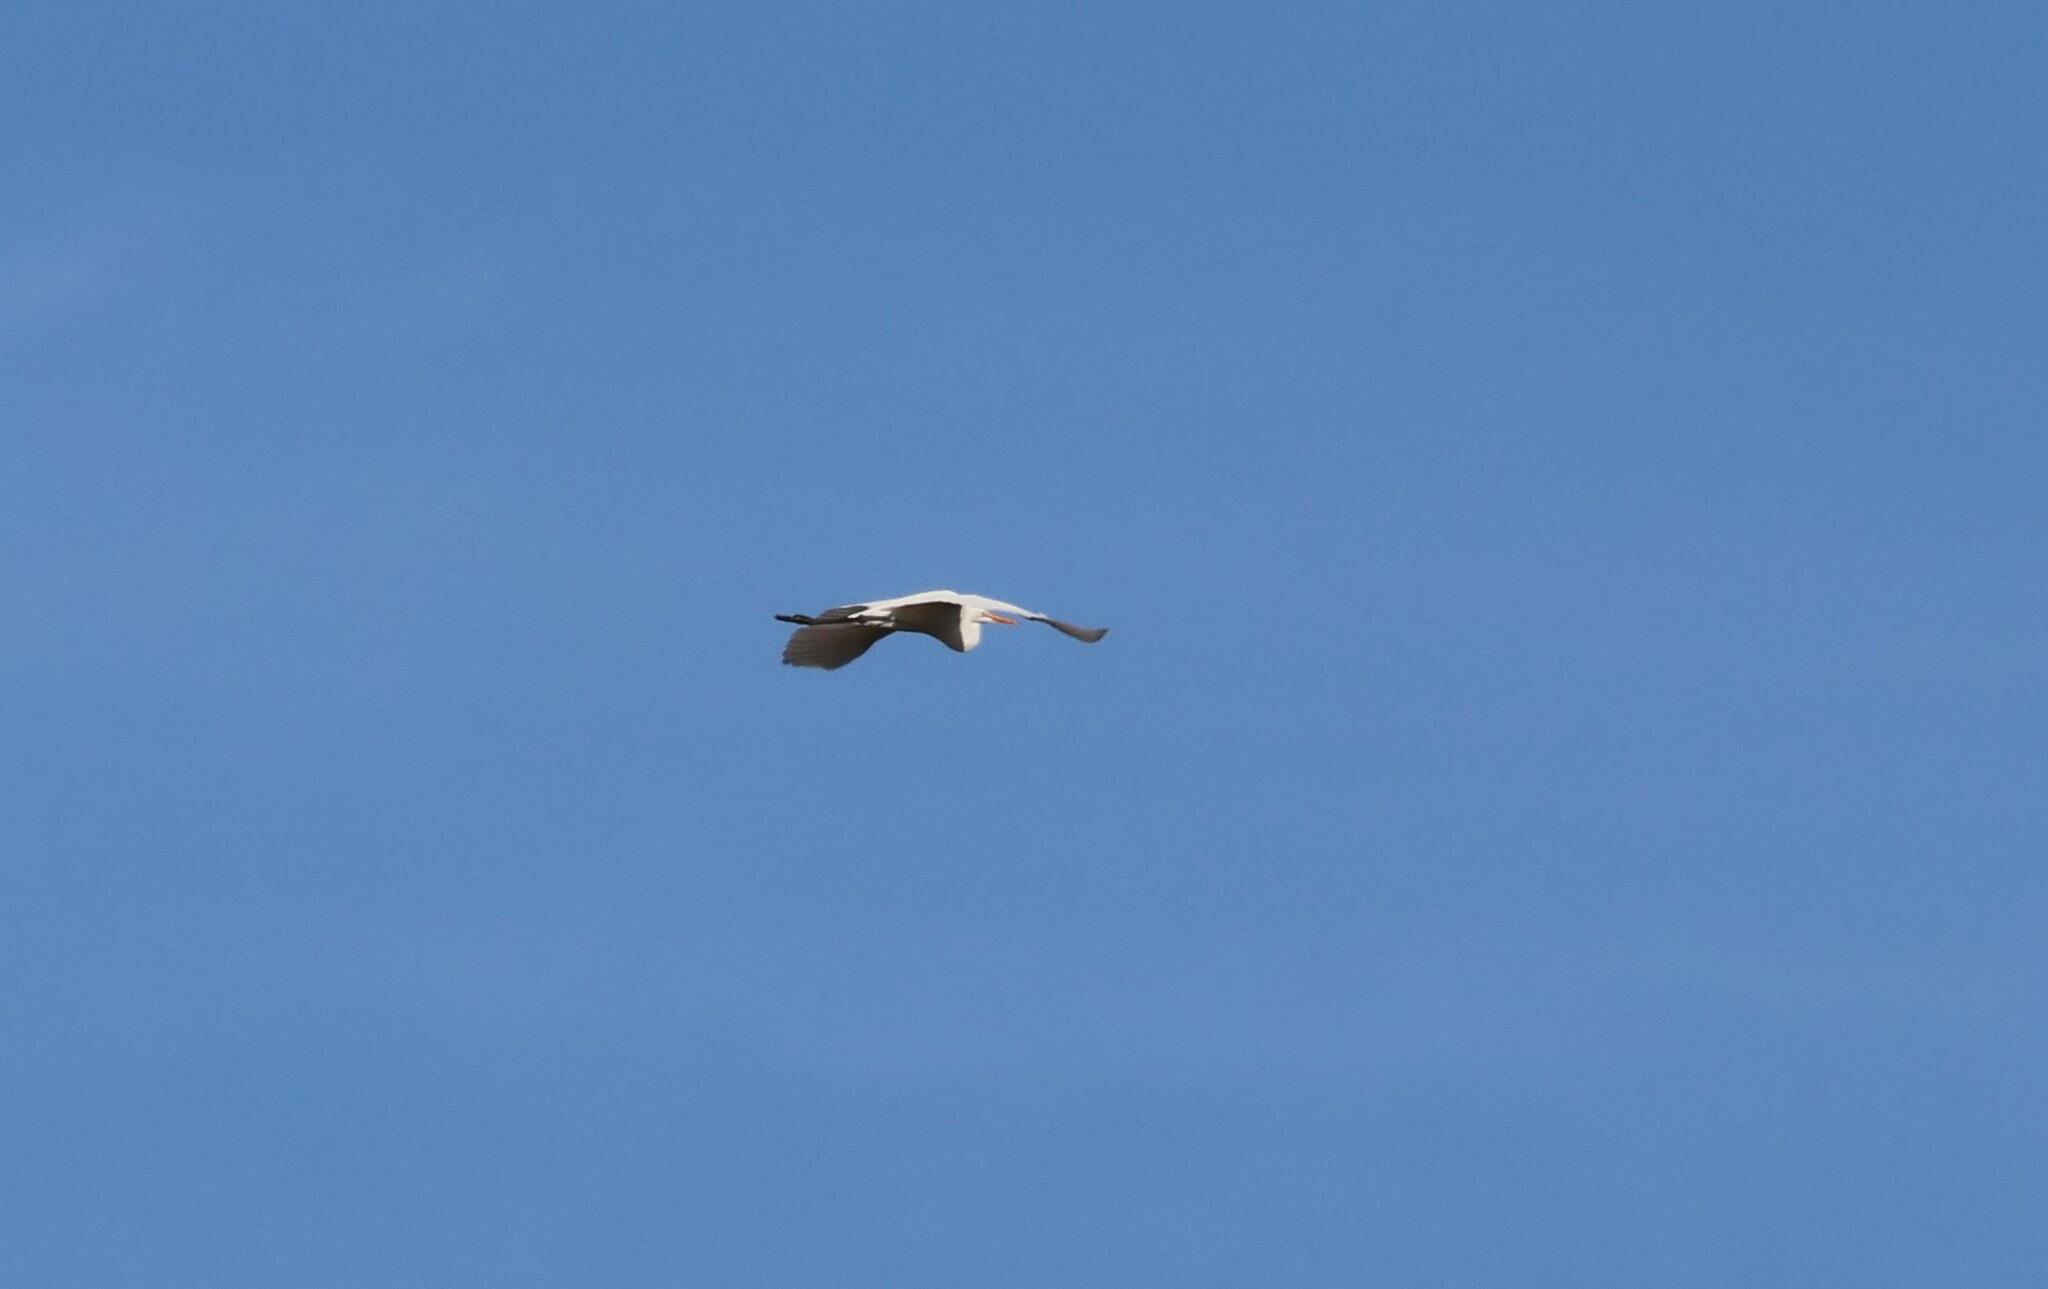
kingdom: Animalia
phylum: Chordata
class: Aves
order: Pelecaniformes
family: Ardeidae
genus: Ardea
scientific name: Ardea alba
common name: Great egret
